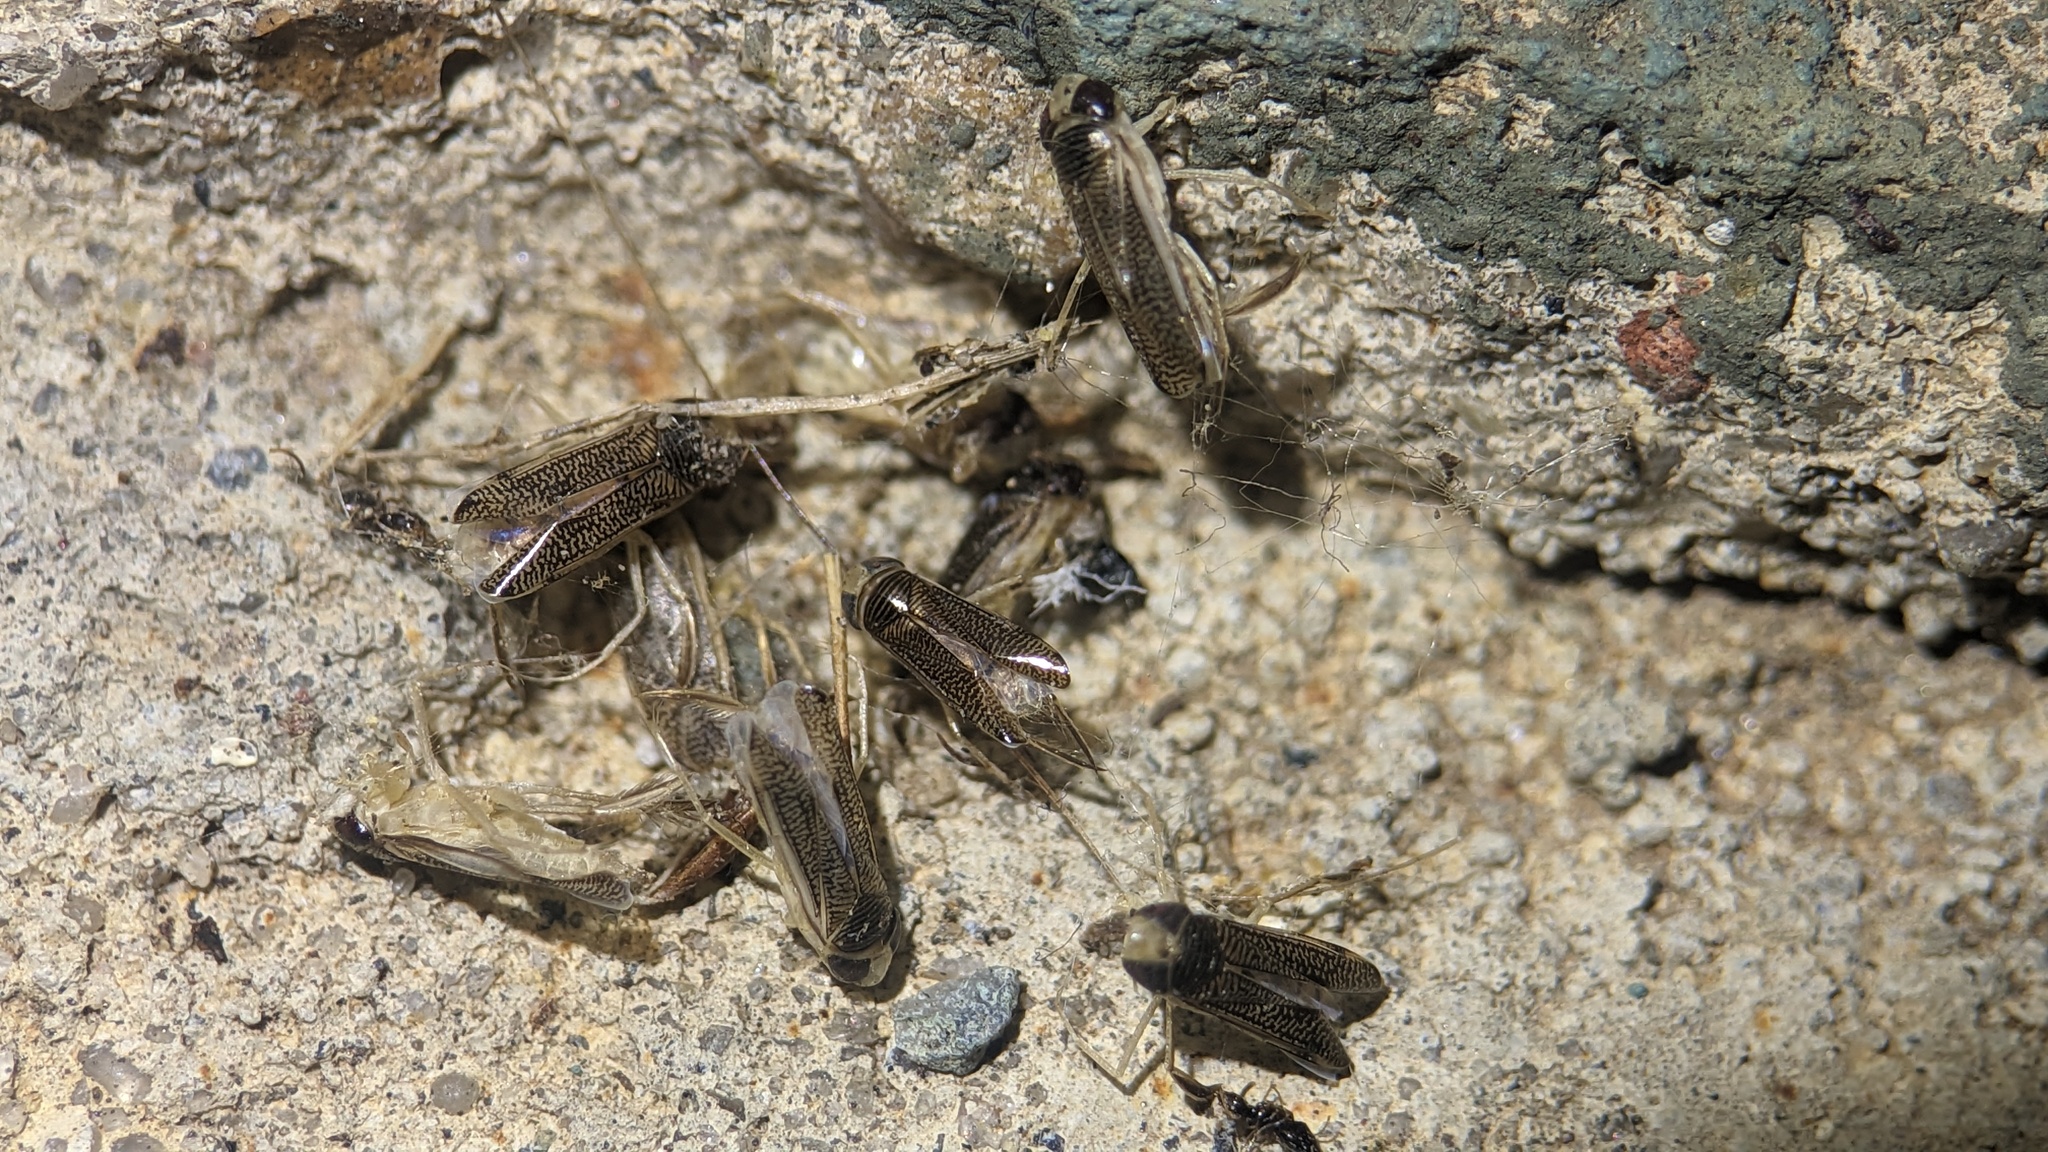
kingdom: Animalia
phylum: Arthropoda
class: Insecta
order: Hemiptera
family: Corixidae
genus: Trichocorixa
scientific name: Trichocorixa
